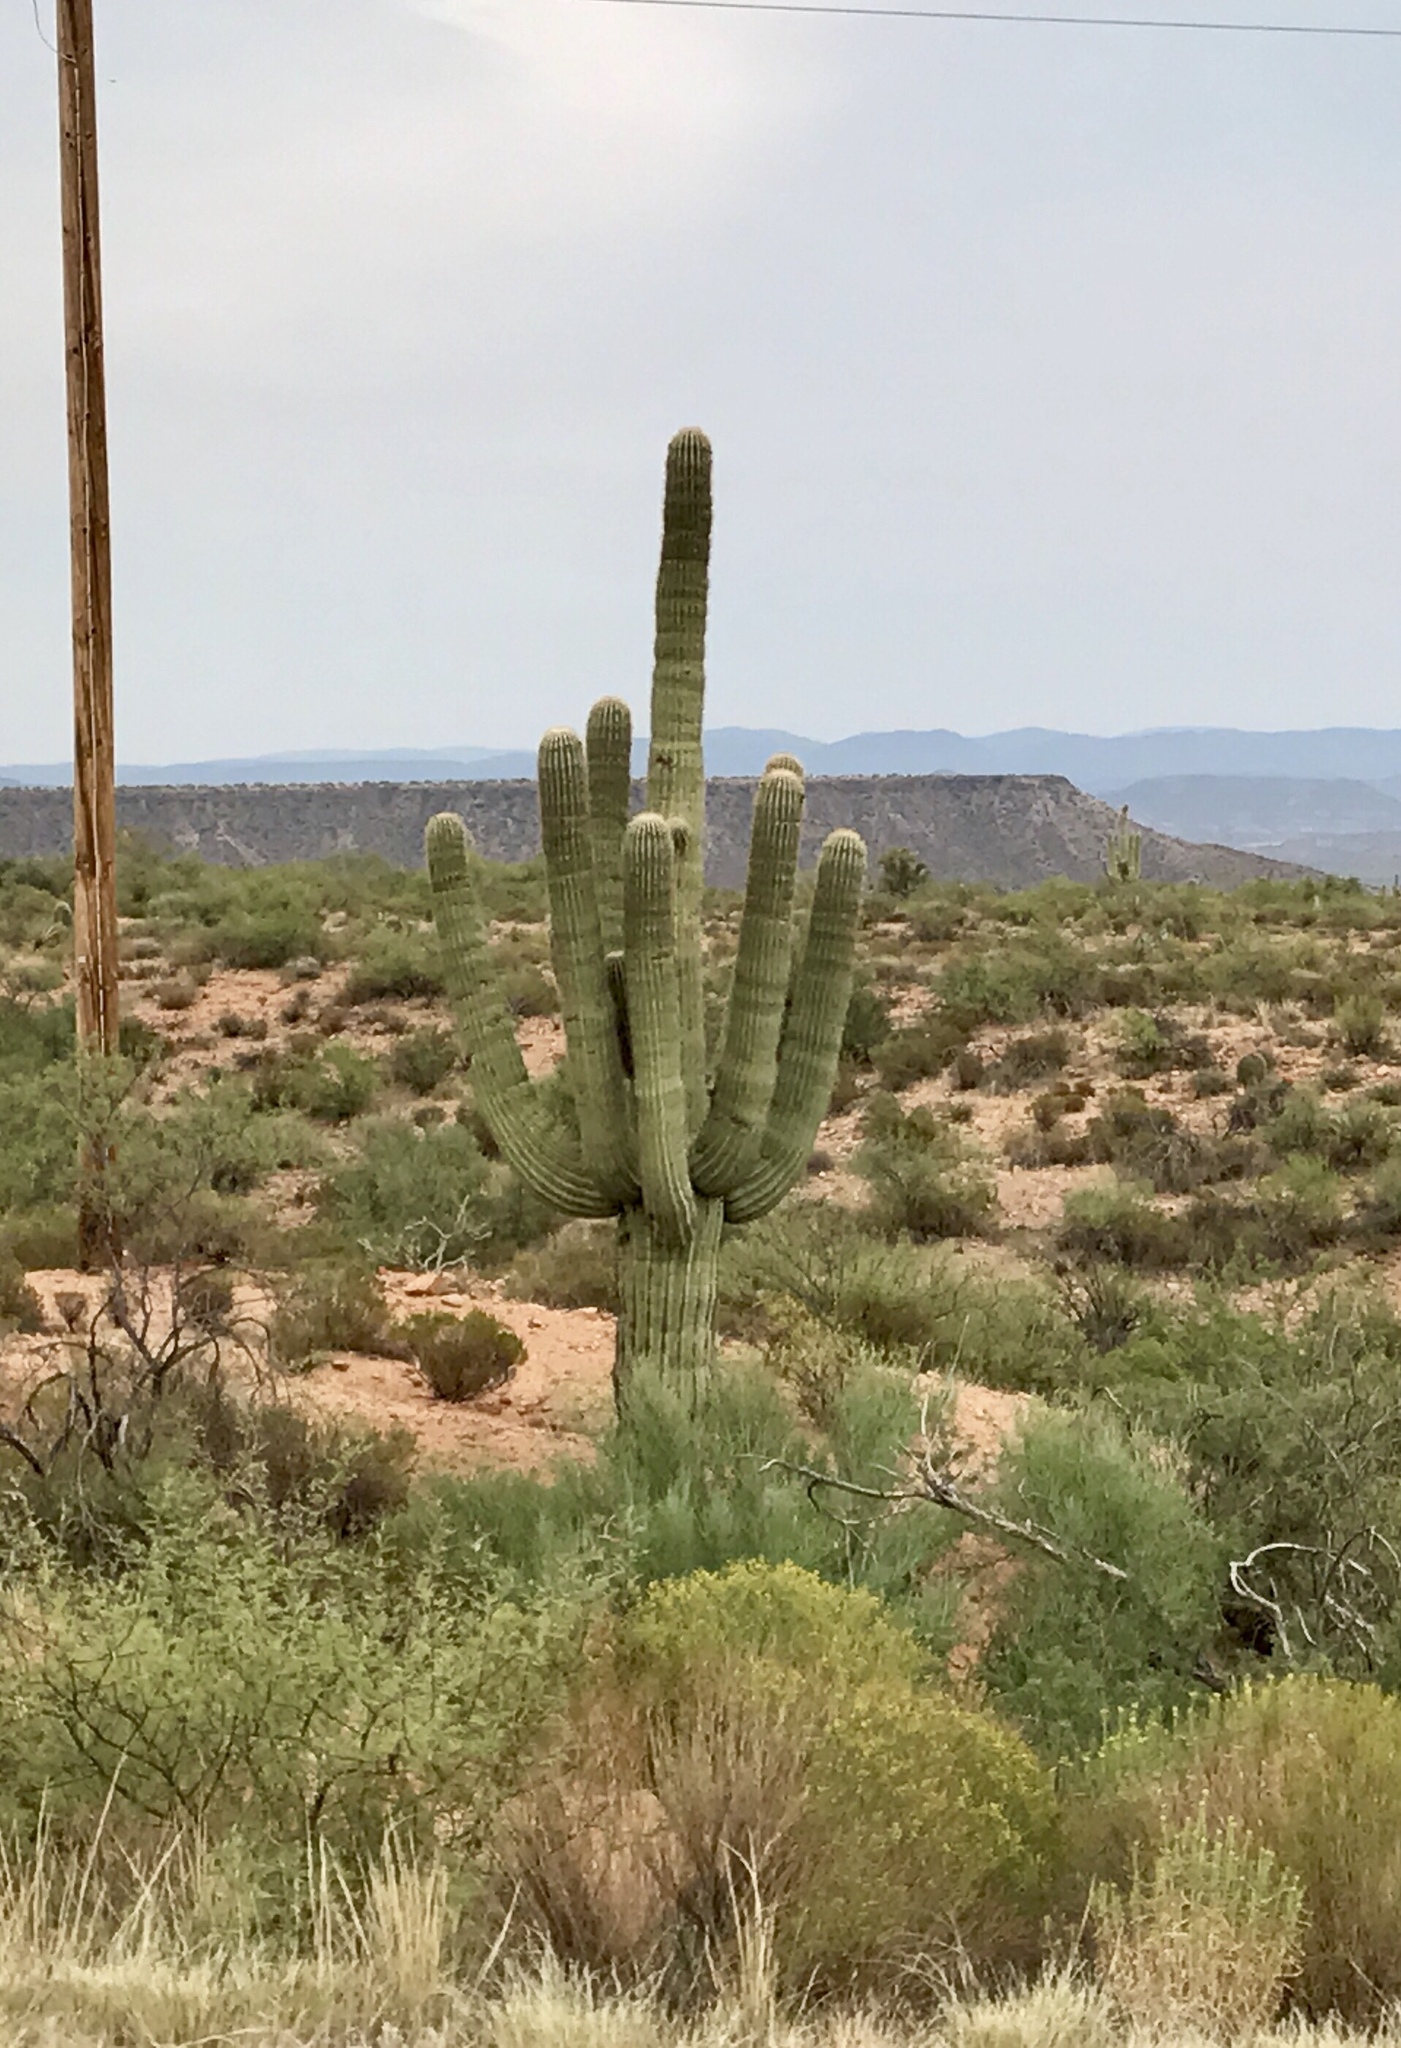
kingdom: Plantae
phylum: Tracheophyta
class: Magnoliopsida
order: Caryophyllales
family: Cactaceae
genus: Carnegiea
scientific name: Carnegiea gigantea
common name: Saguaro
